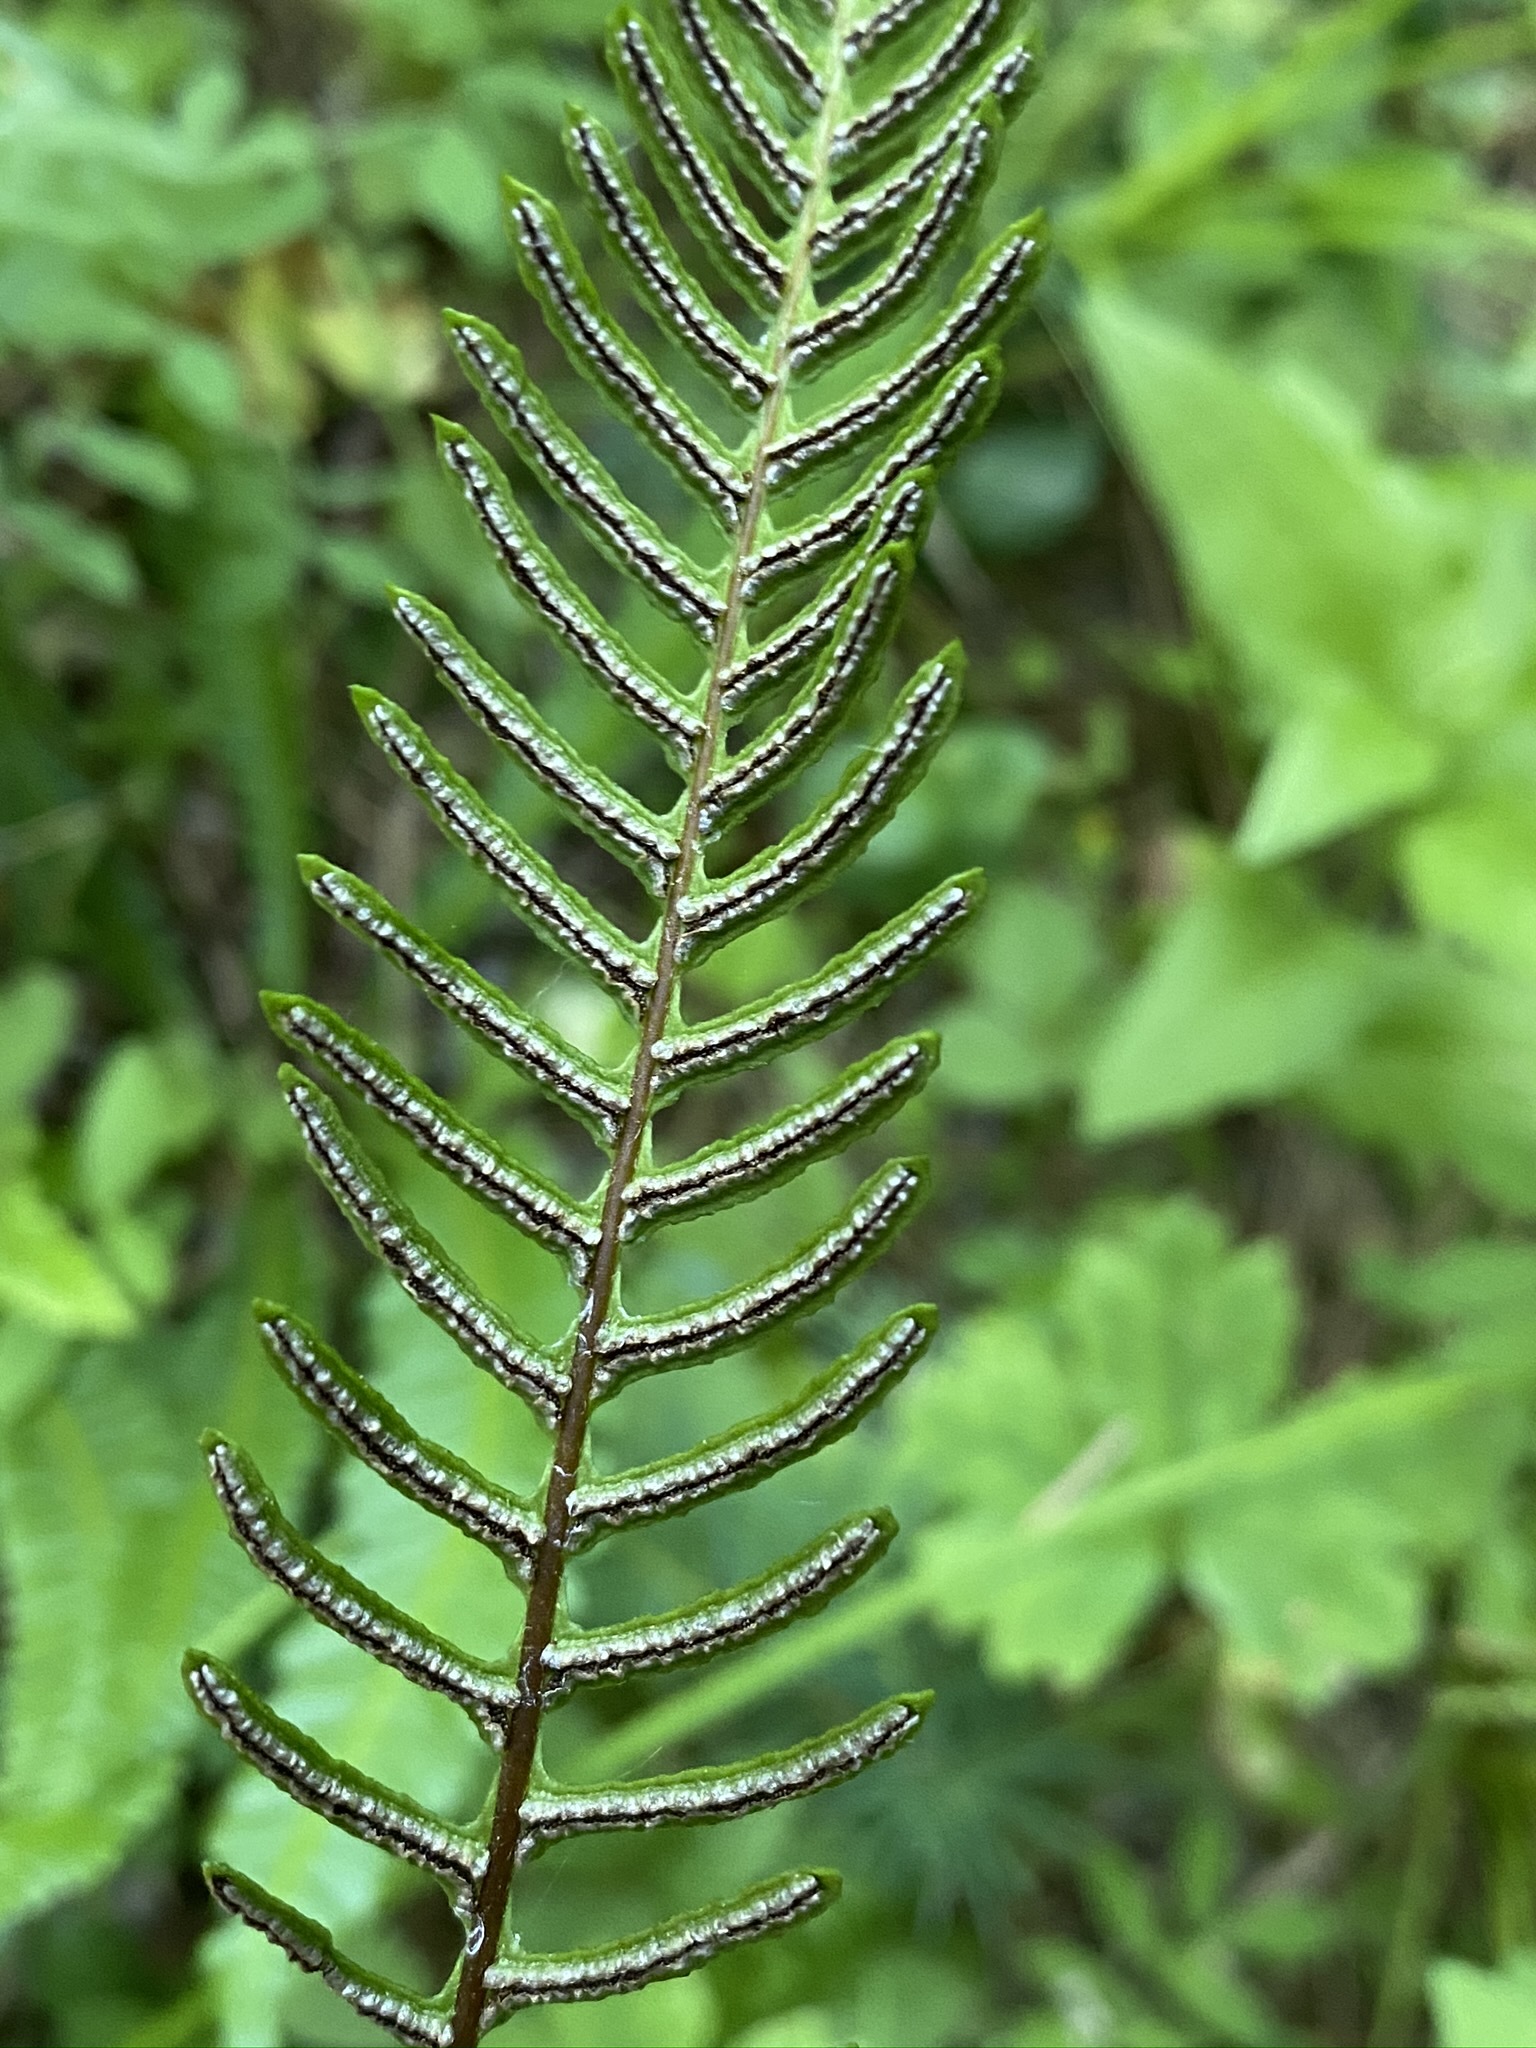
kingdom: Plantae
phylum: Tracheophyta
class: Polypodiopsida
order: Polypodiales
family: Blechnaceae
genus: Struthiopteris
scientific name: Struthiopteris spicant
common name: Deer fern
